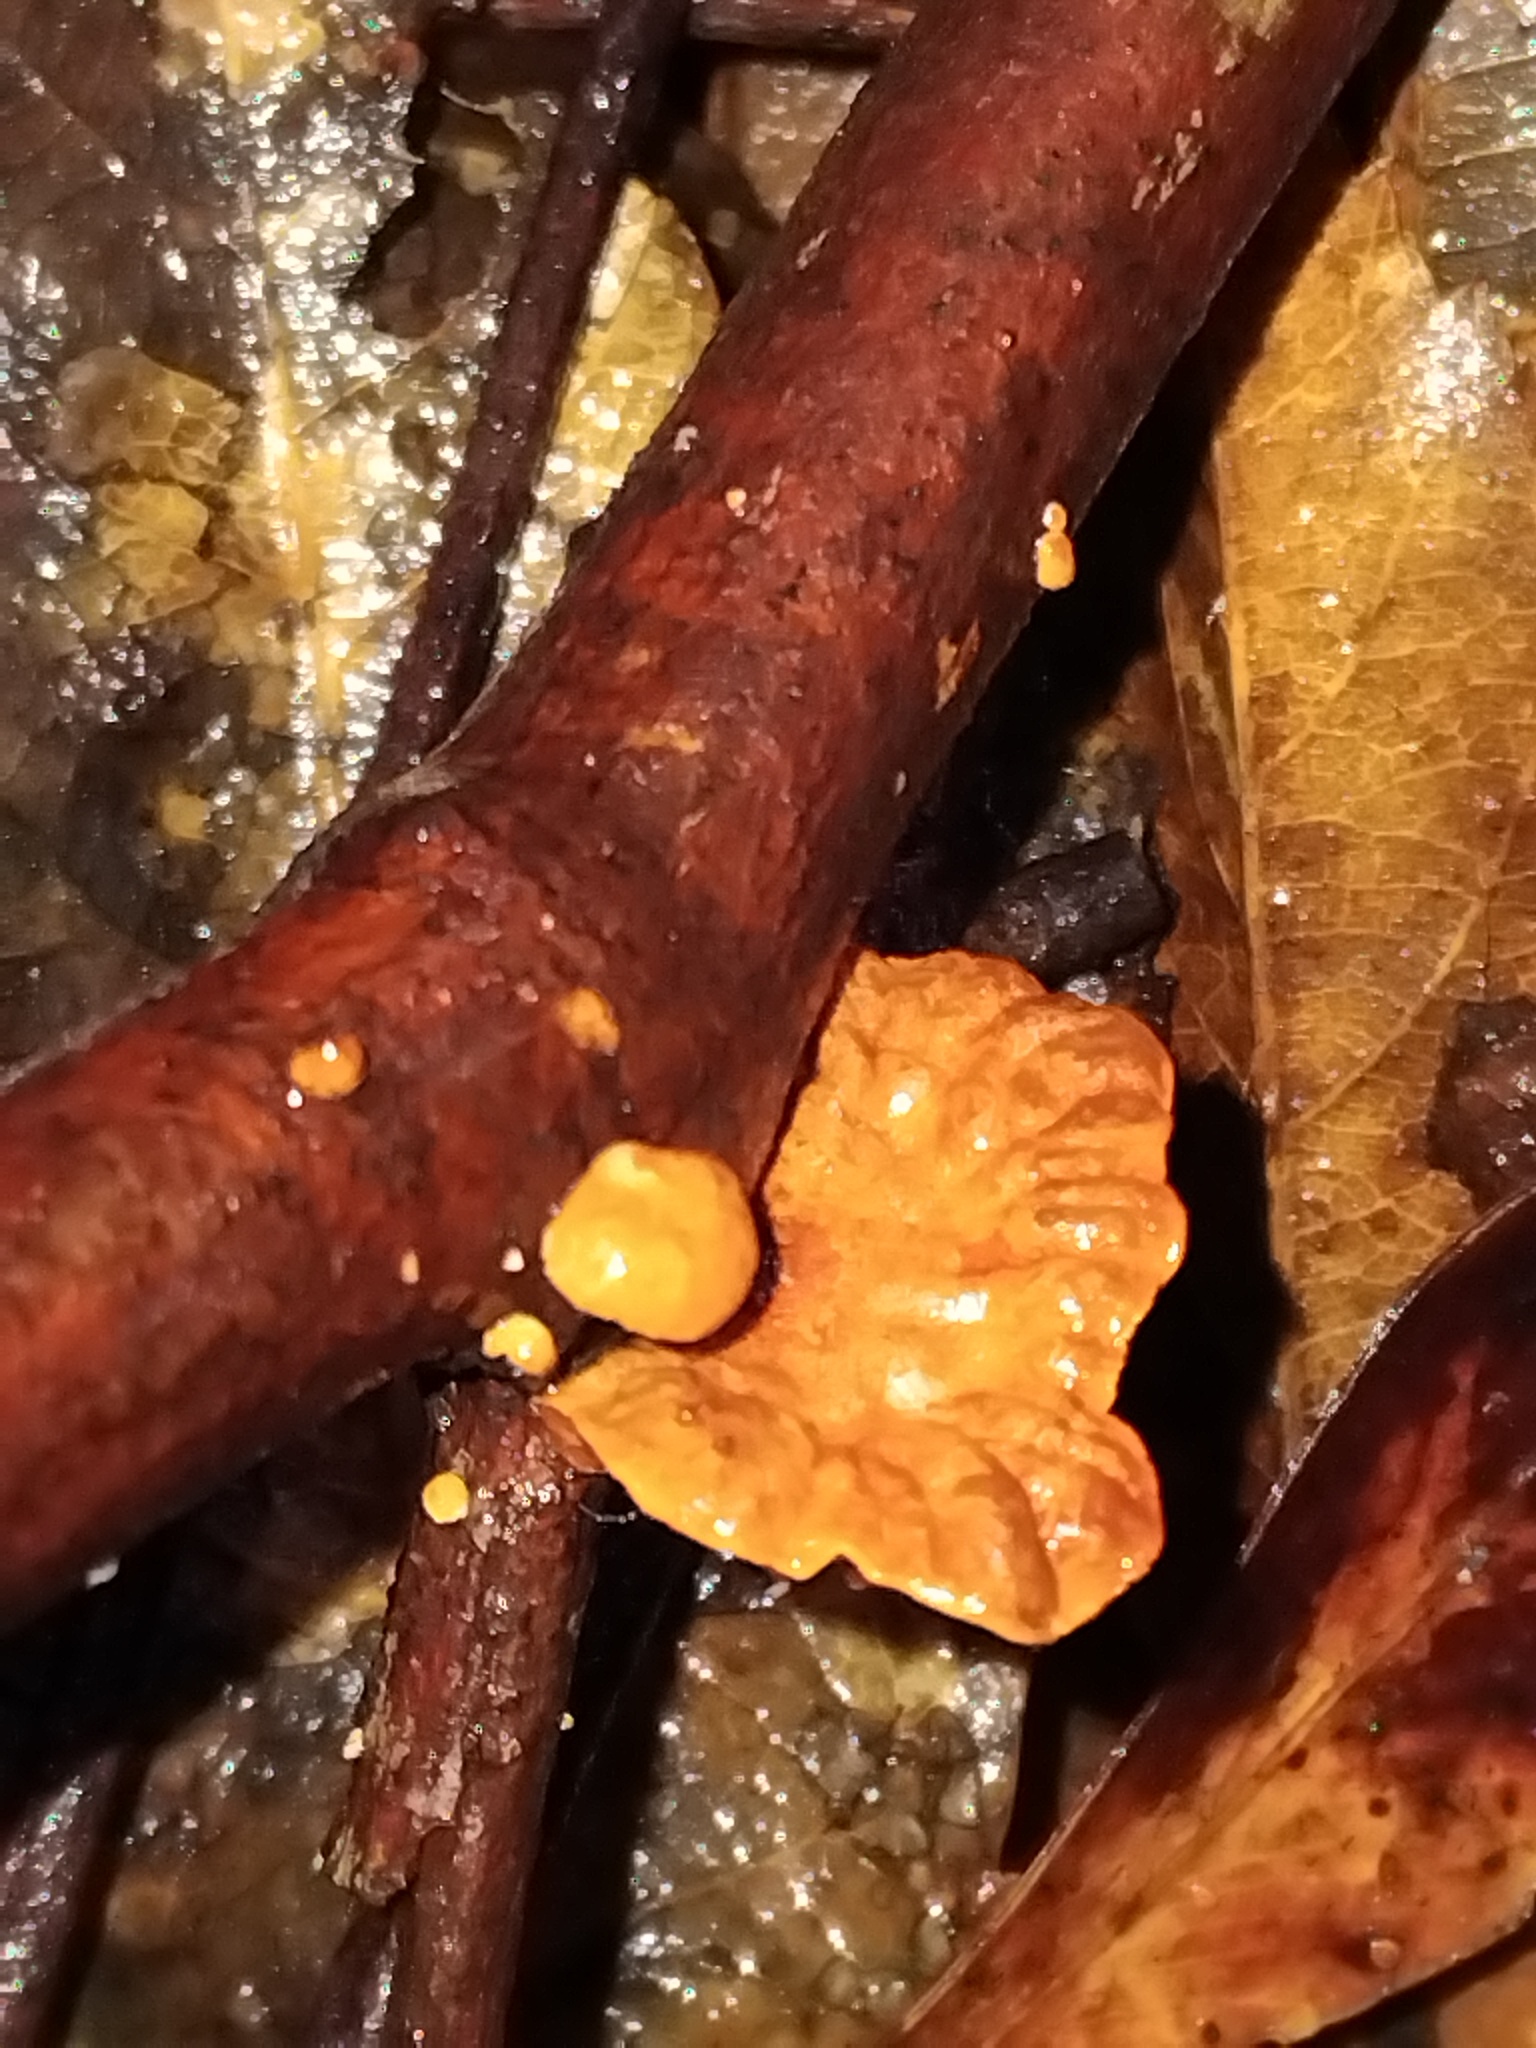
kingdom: Fungi
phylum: Basidiomycota
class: Agaricomycetes
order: Agaricales
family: Omphalotaceae
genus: Anthracophyllum
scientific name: Anthracophyllum archeri
